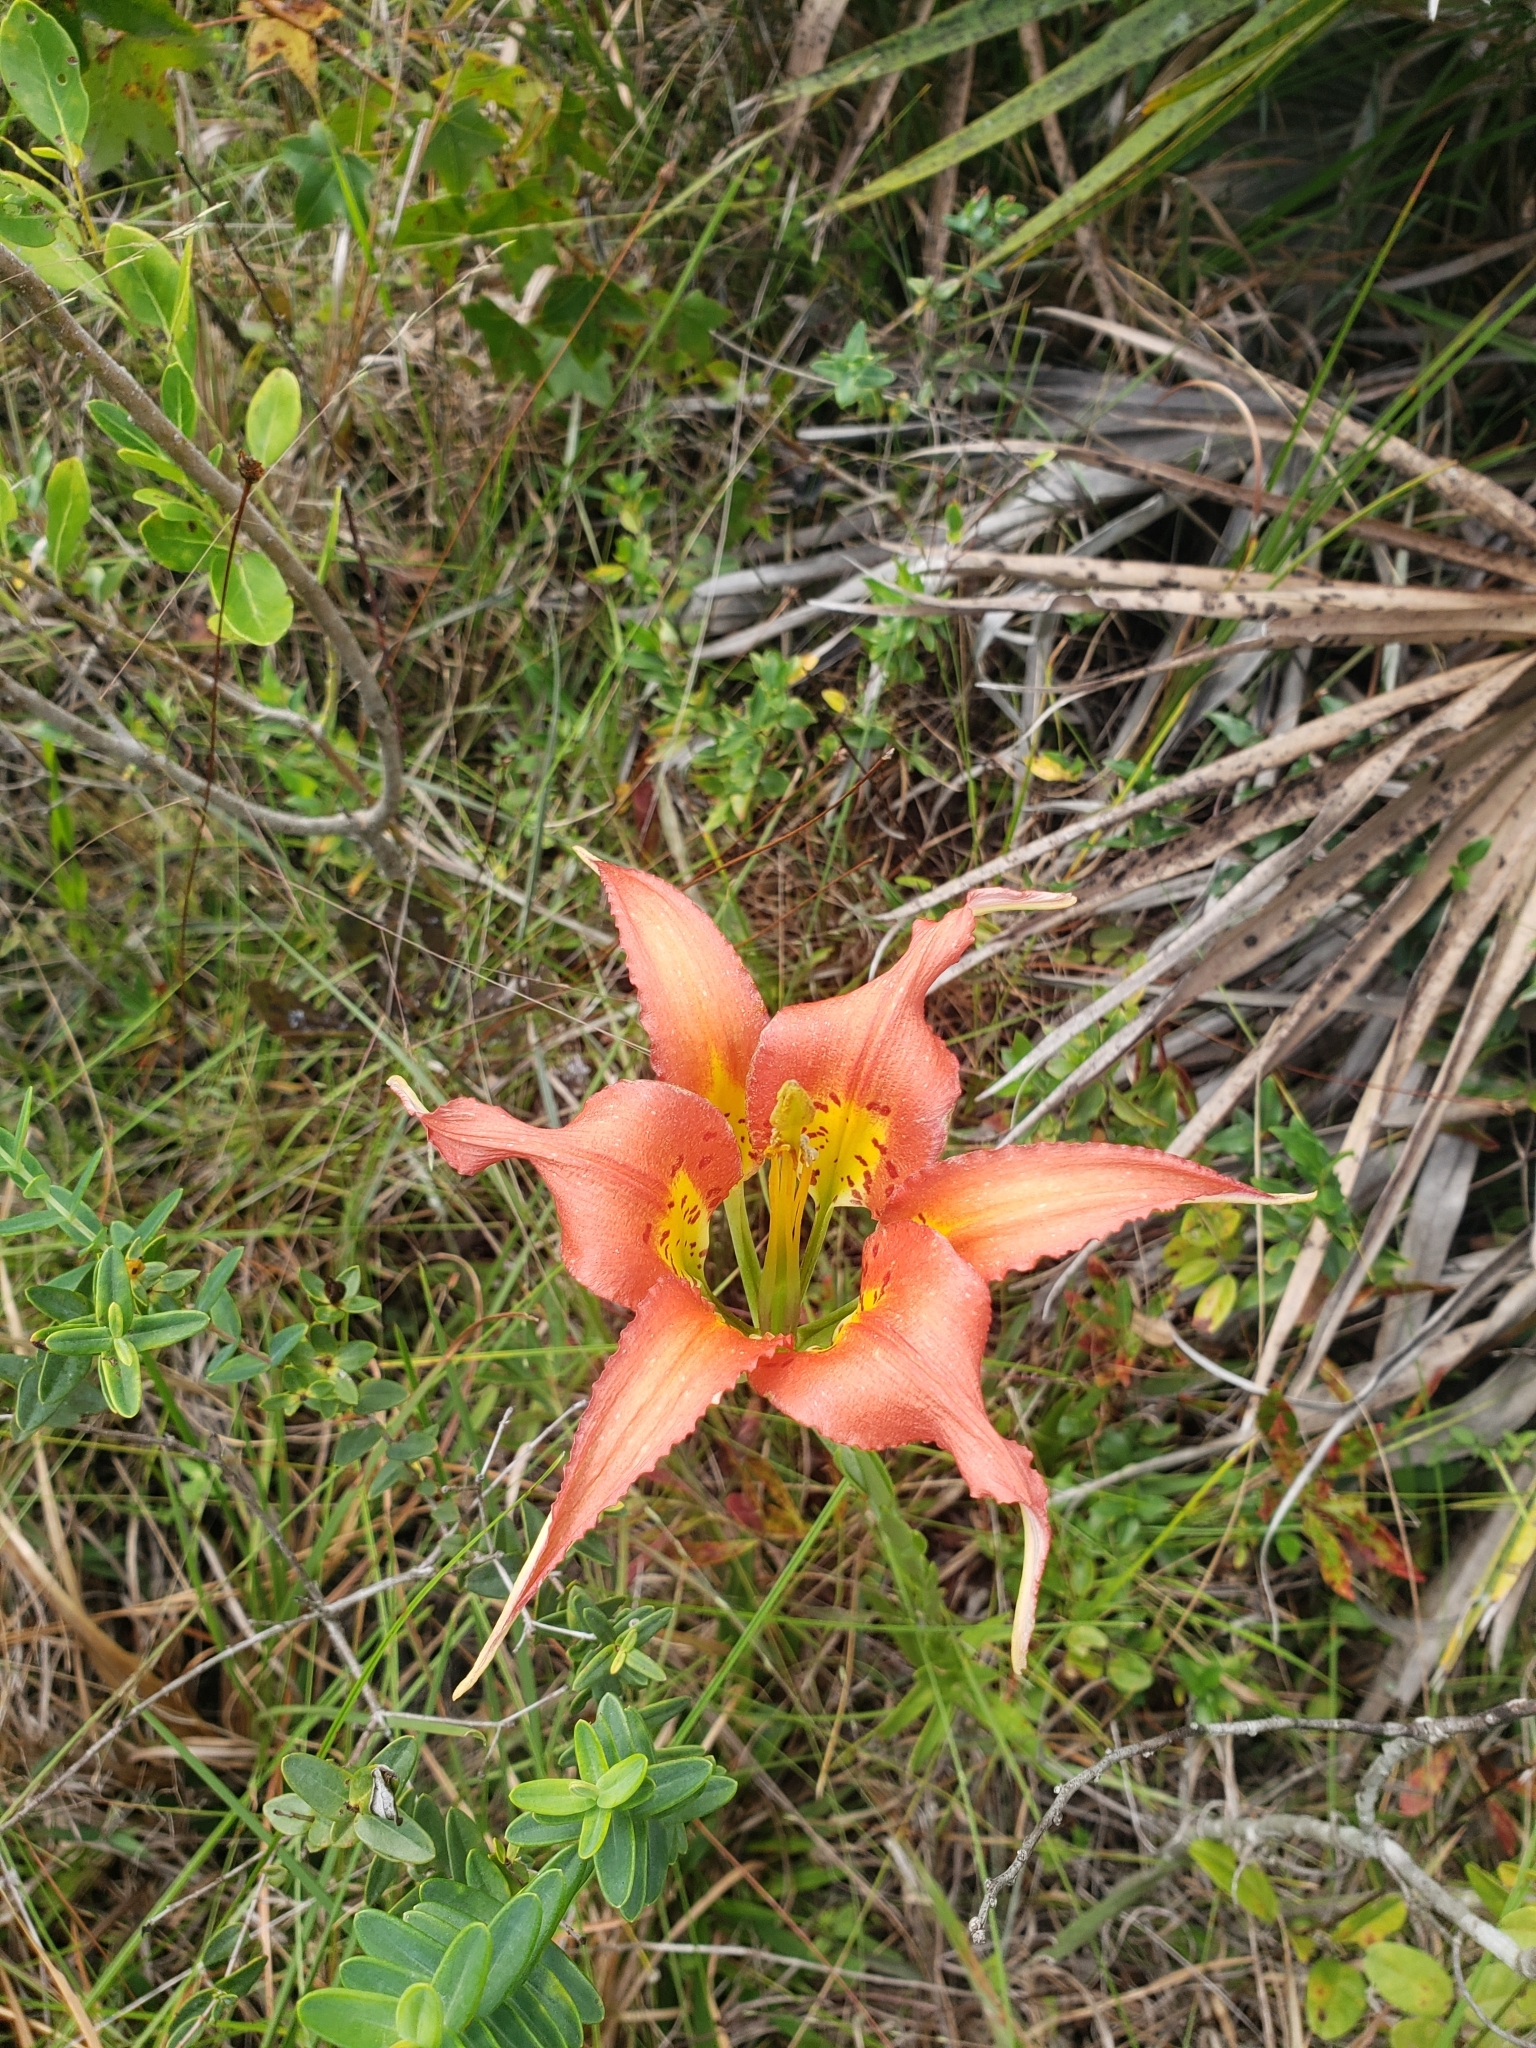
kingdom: Plantae
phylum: Tracheophyta
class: Liliopsida
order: Liliales
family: Liliaceae
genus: Lilium
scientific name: Lilium catesbaei
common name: Catesby's lily
